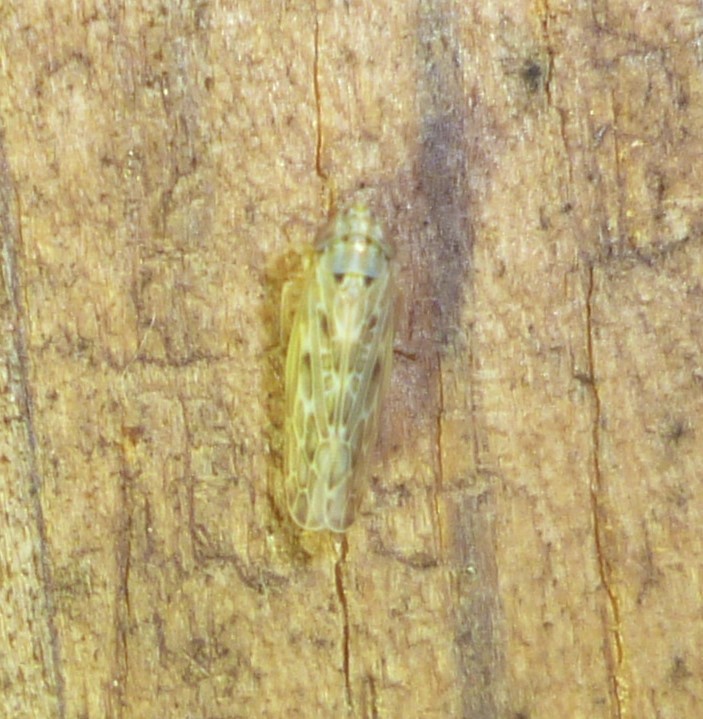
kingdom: Animalia
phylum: Arthropoda
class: Insecta
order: Hemiptera
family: Cicadellidae
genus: Endria
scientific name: Endria inimicus
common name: Painted leafhopper
